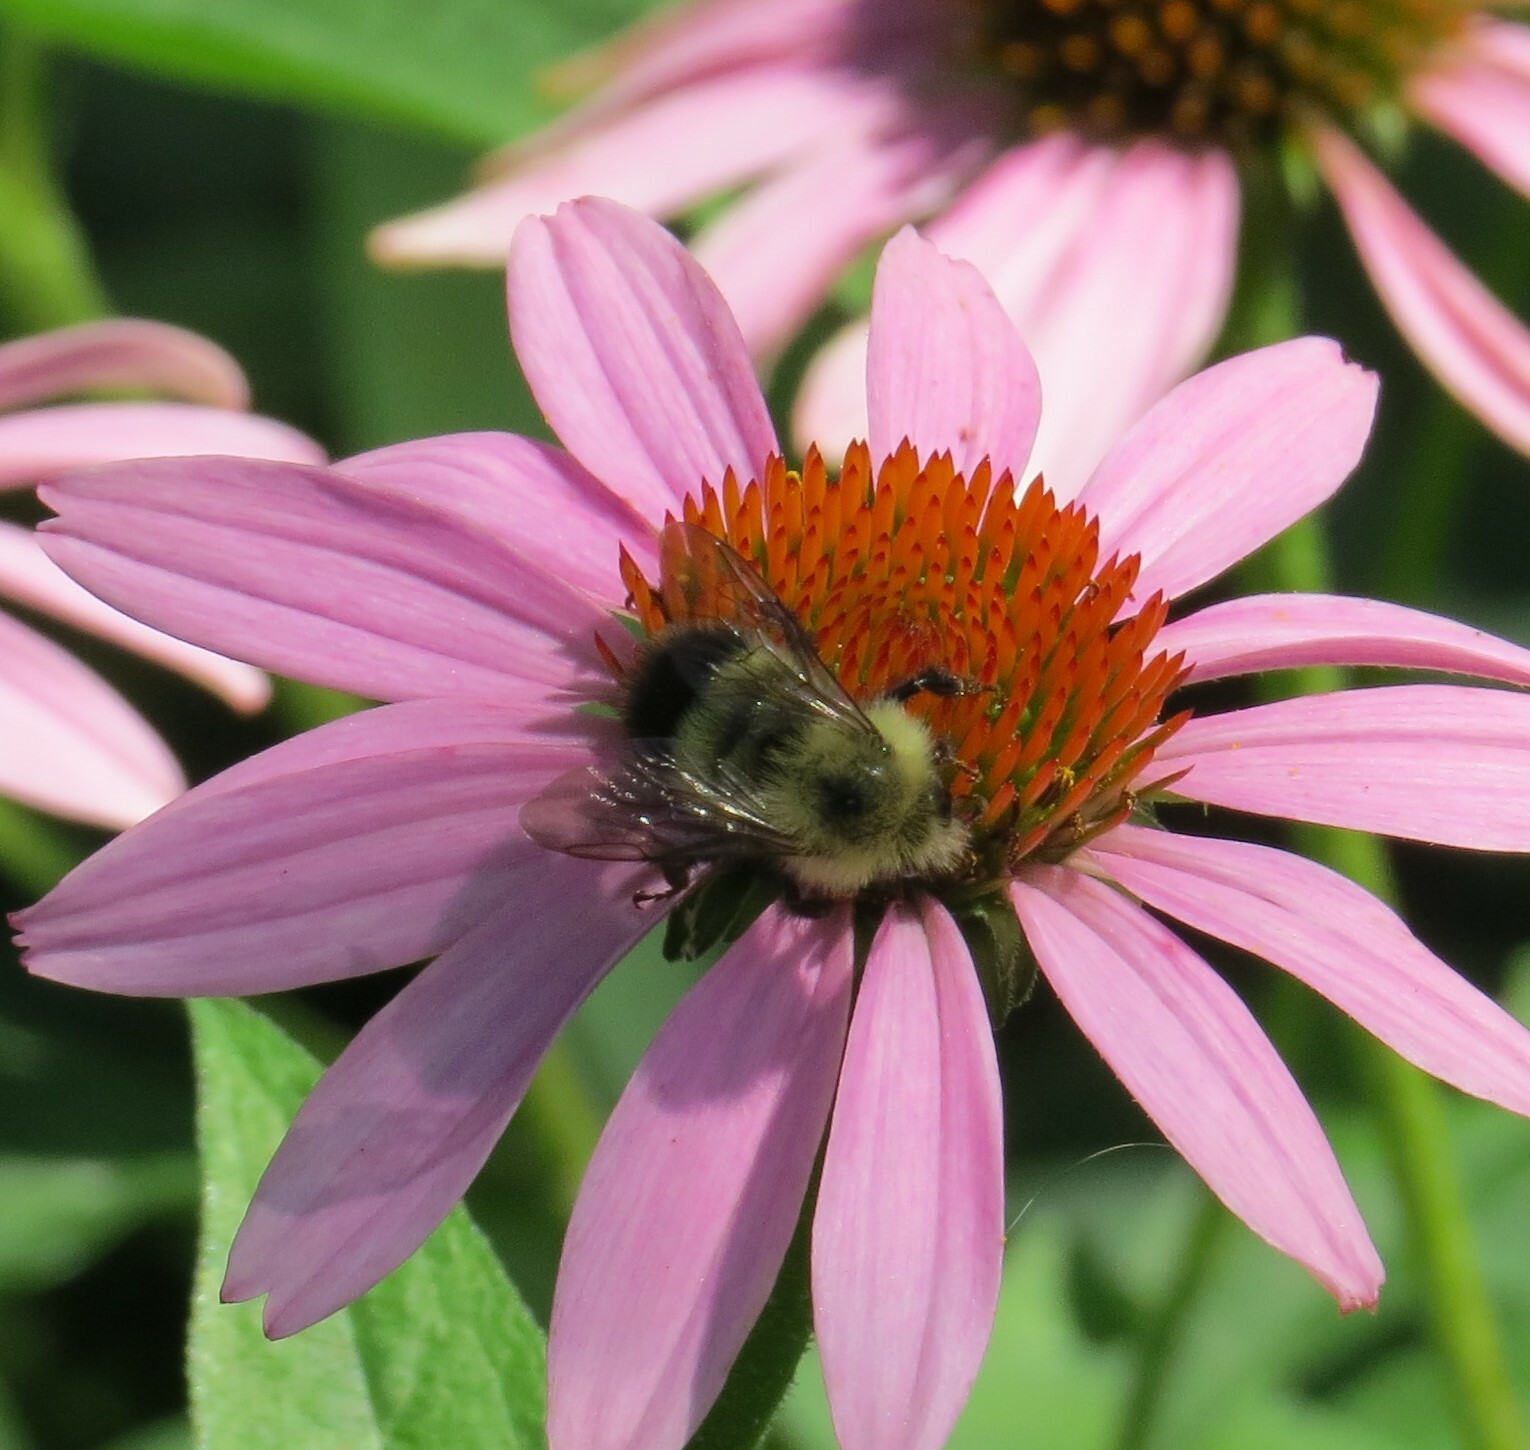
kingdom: Animalia
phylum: Arthropoda
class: Insecta
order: Hymenoptera
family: Apidae
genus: Bombus
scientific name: Bombus vagans
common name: Half-black bumble bee
